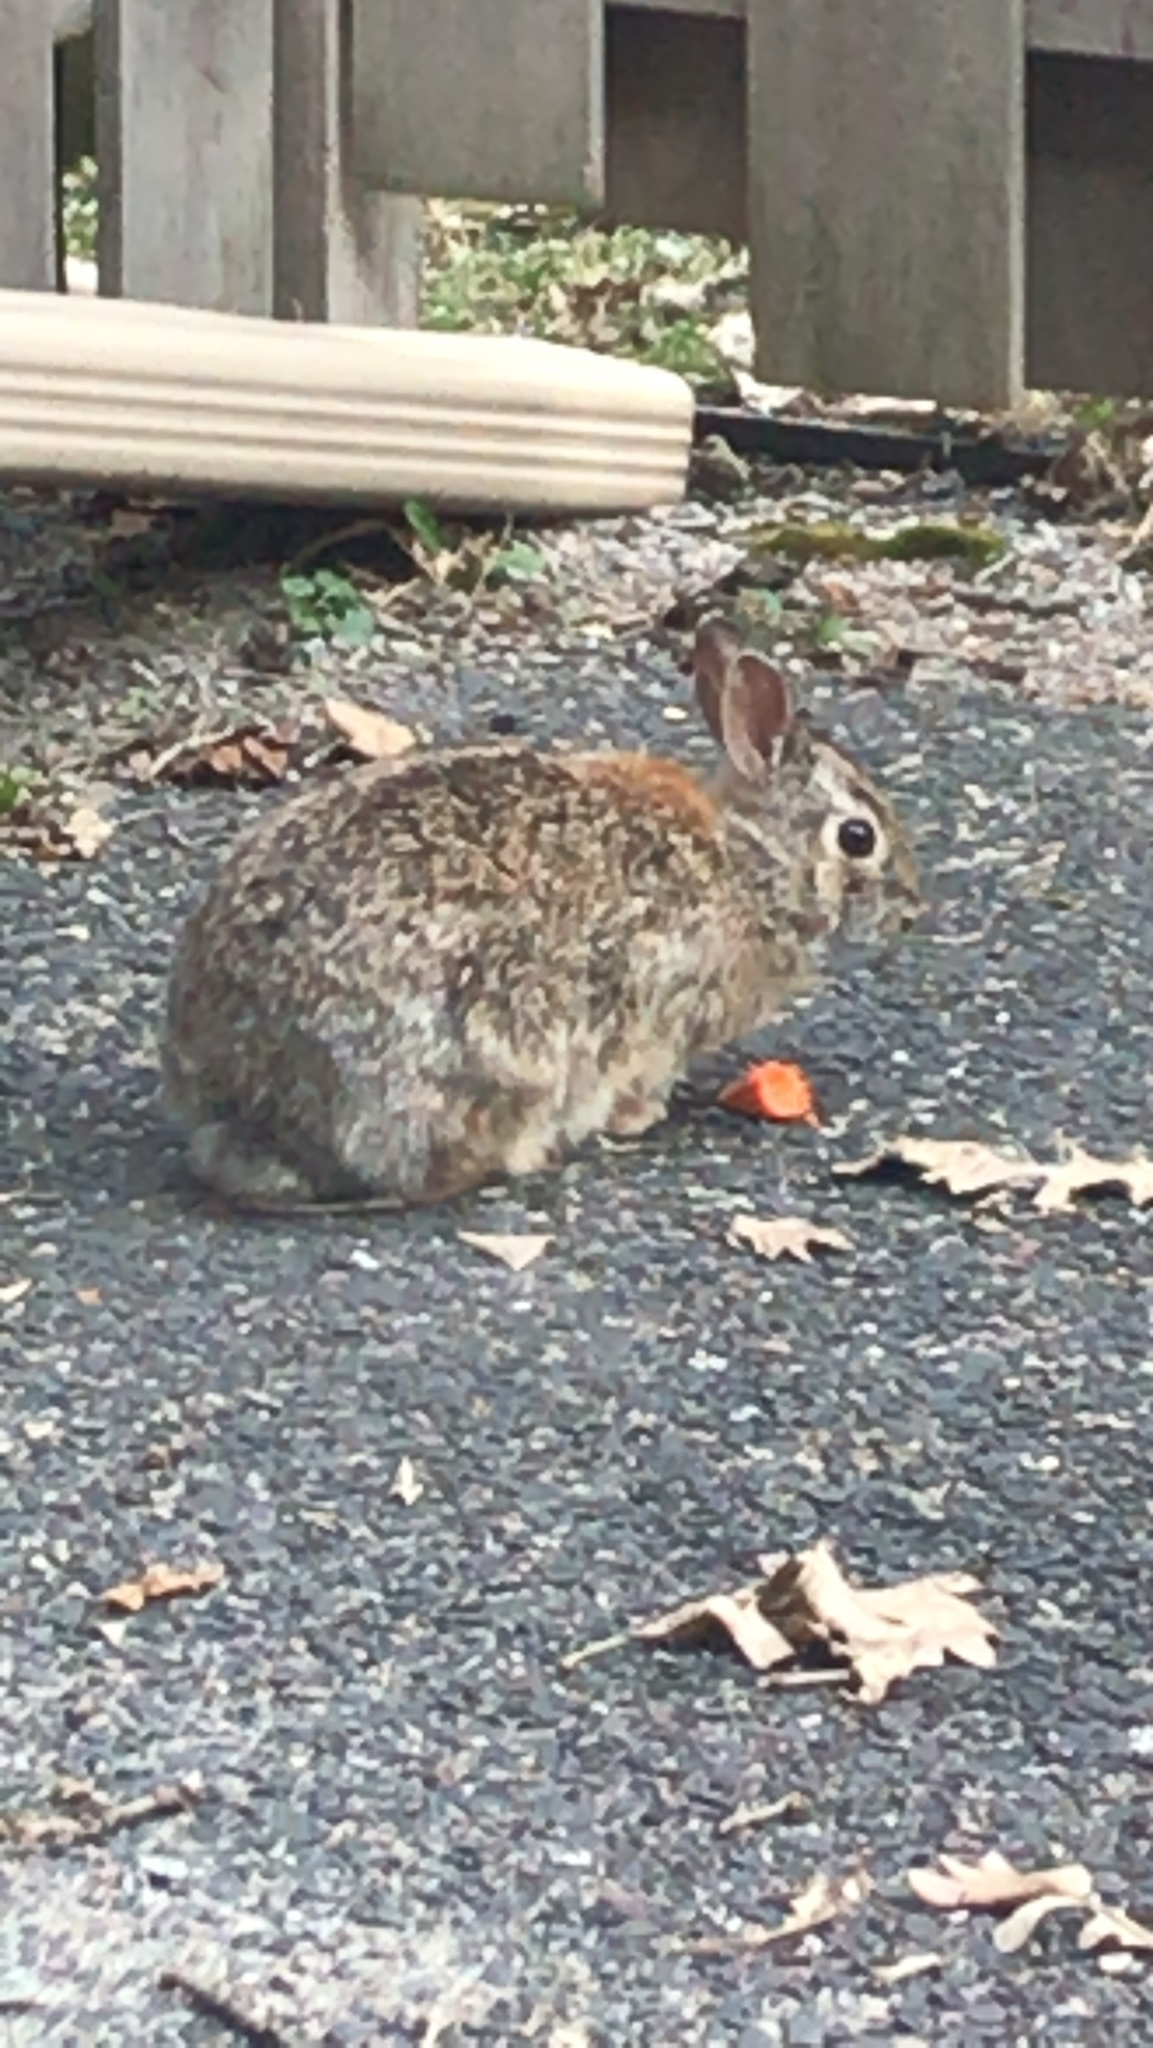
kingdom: Animalia
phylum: Chordata
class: Mammalia
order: Lagomorpha
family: Leporidae
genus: Sylvilagus
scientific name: Sylvilagus floridanus
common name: Eastern cottontail
